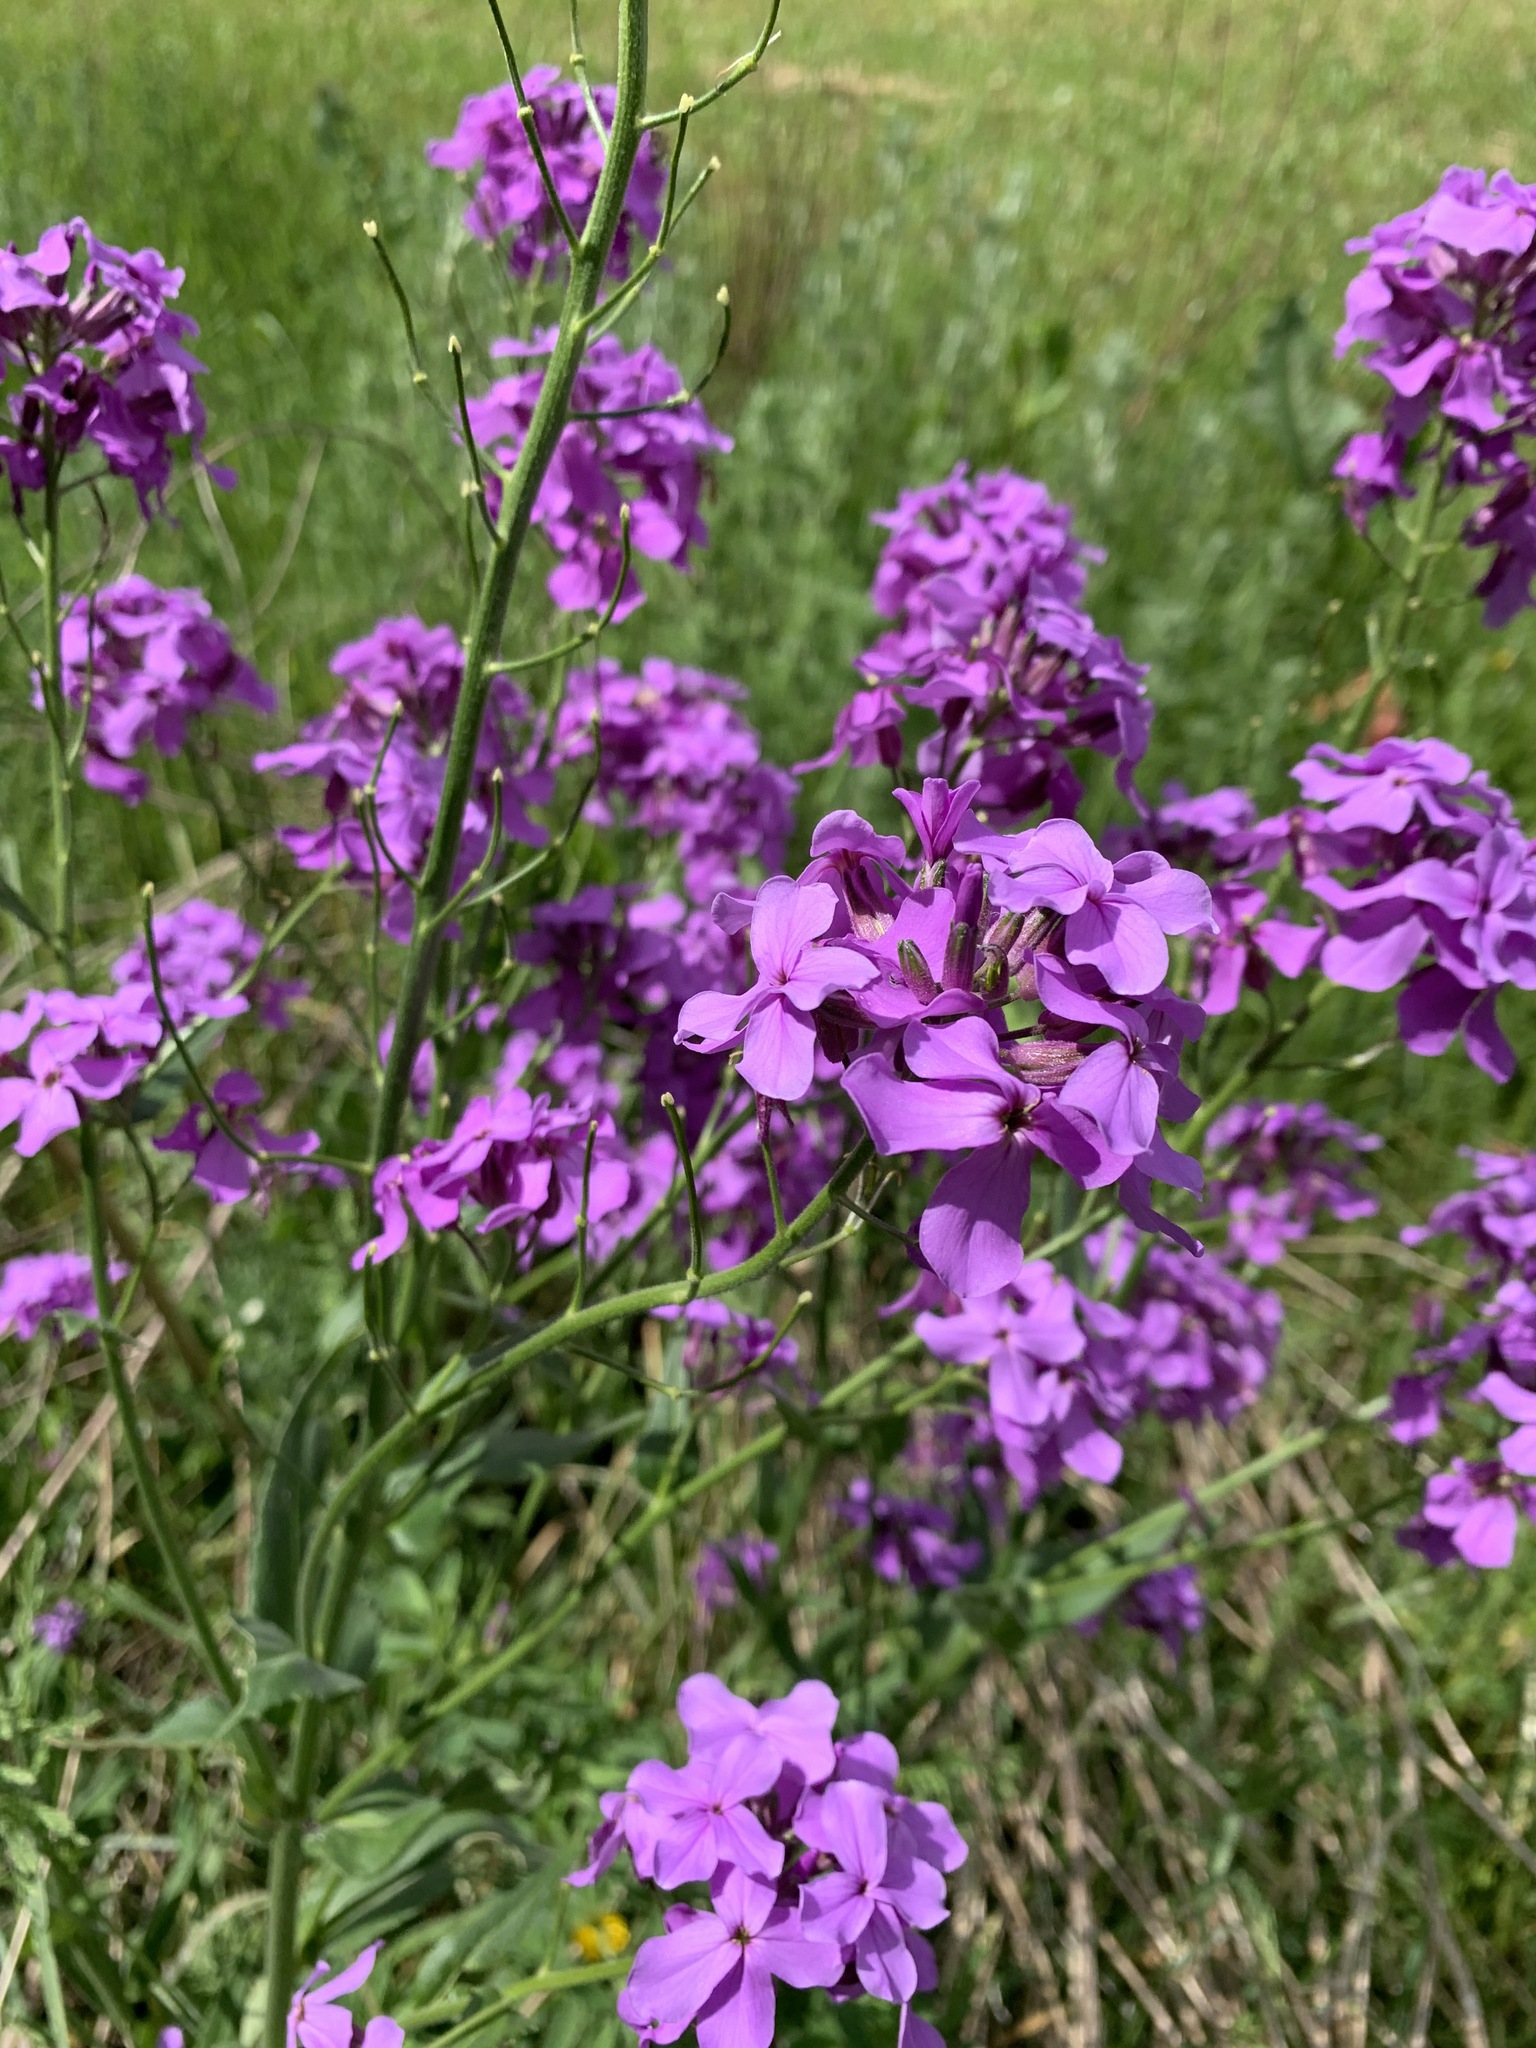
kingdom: Plantae
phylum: Tracheophyta
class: Magnoliopsida
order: Brassicales
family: Brassicaceae
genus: Hesperis
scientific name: Hesperis matronalis
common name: Dame's-violet
